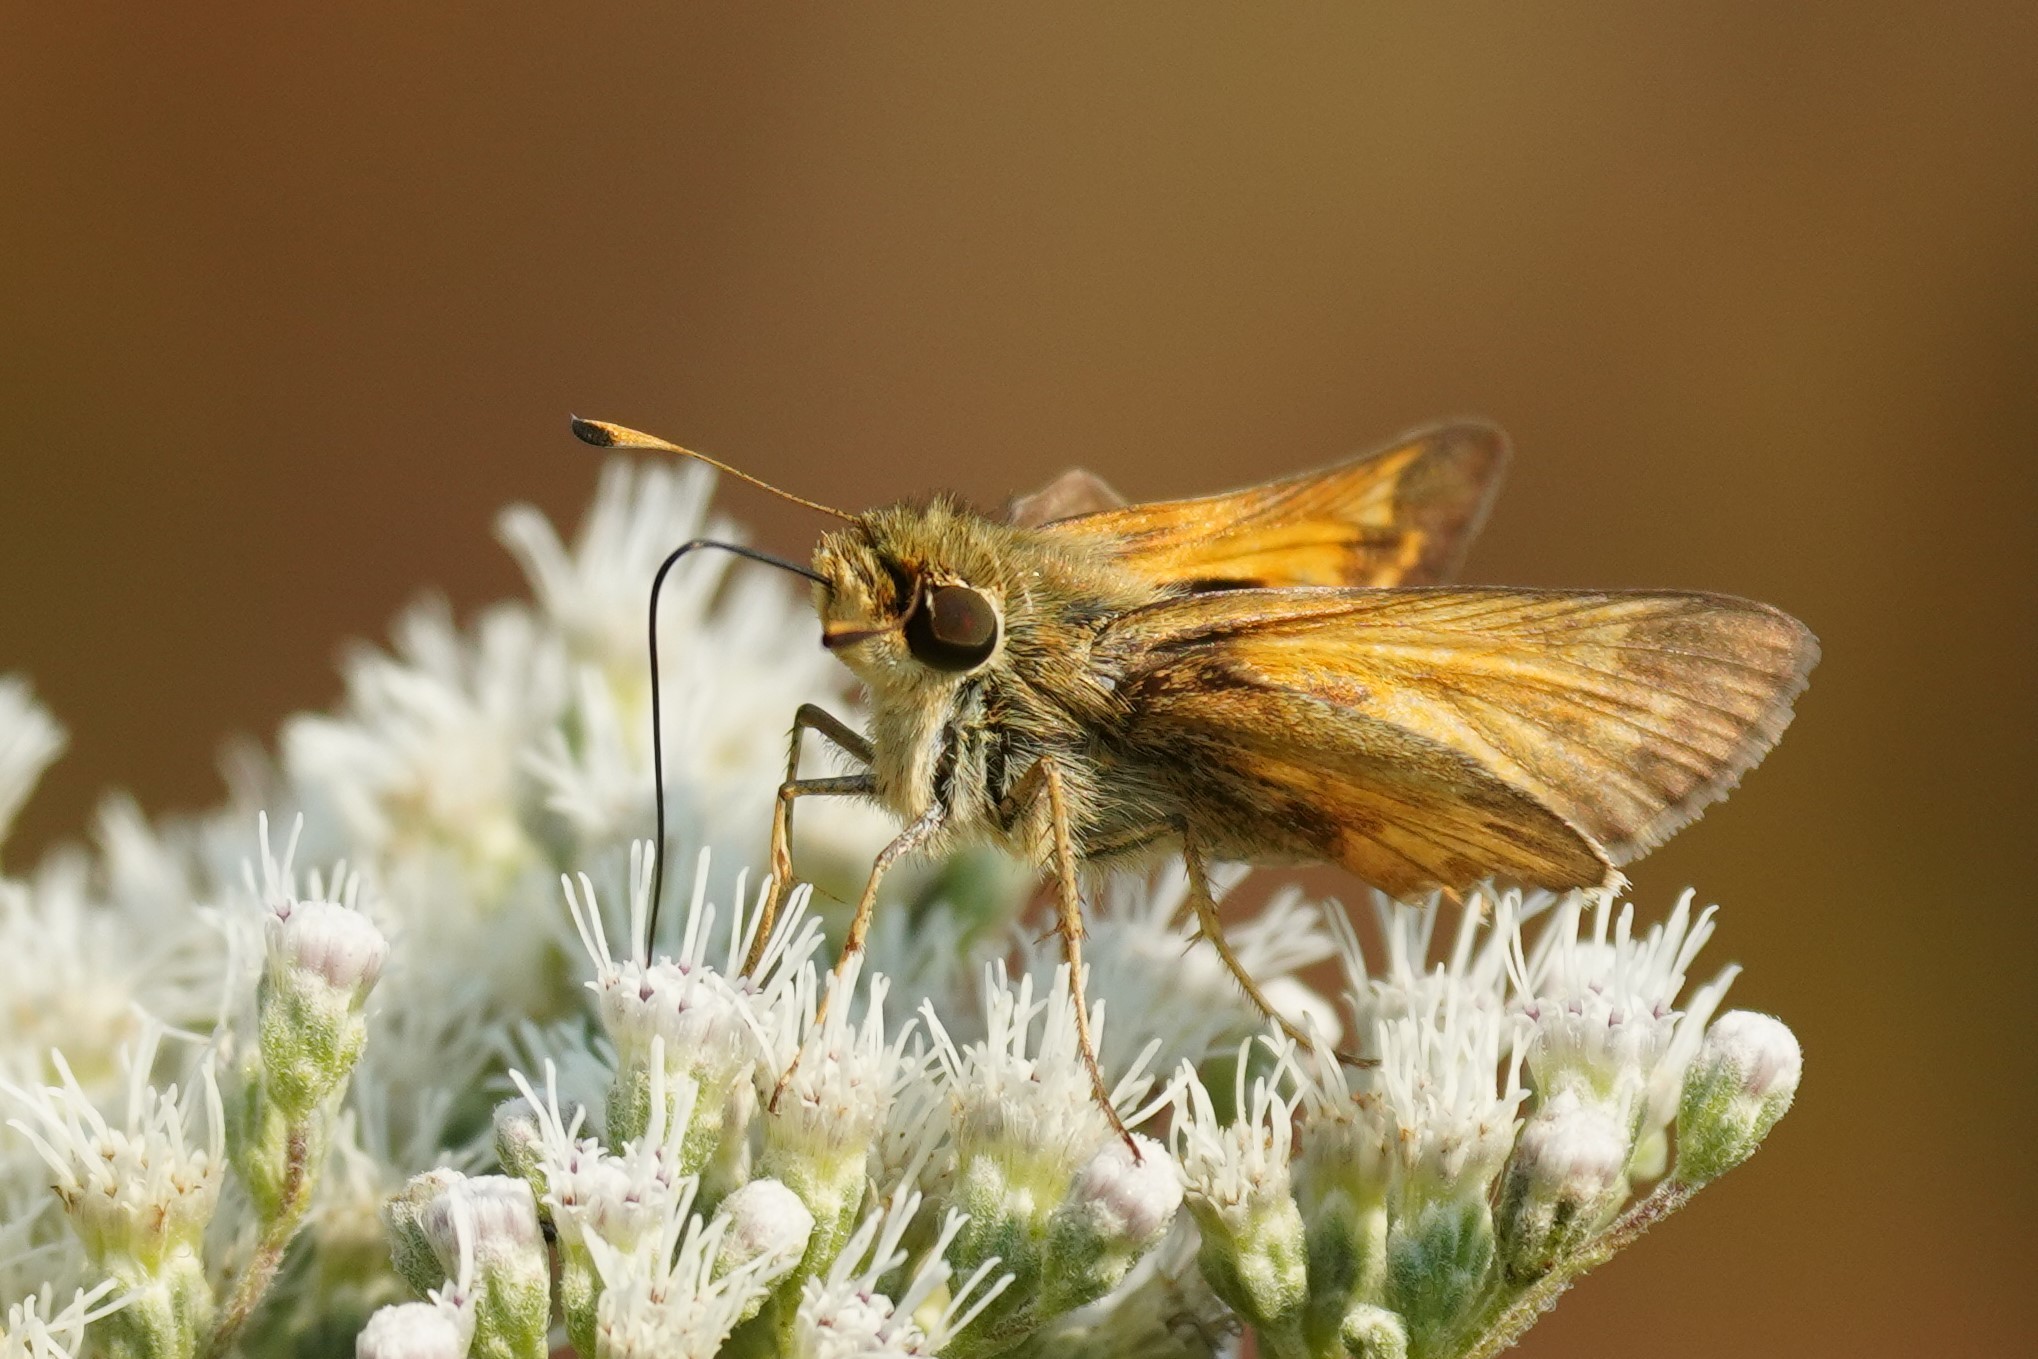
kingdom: Animalia
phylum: Arthropoda
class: Insecta
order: Lepidoptera
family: Hesperiidae
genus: Atalopedes
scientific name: Atalopedes
